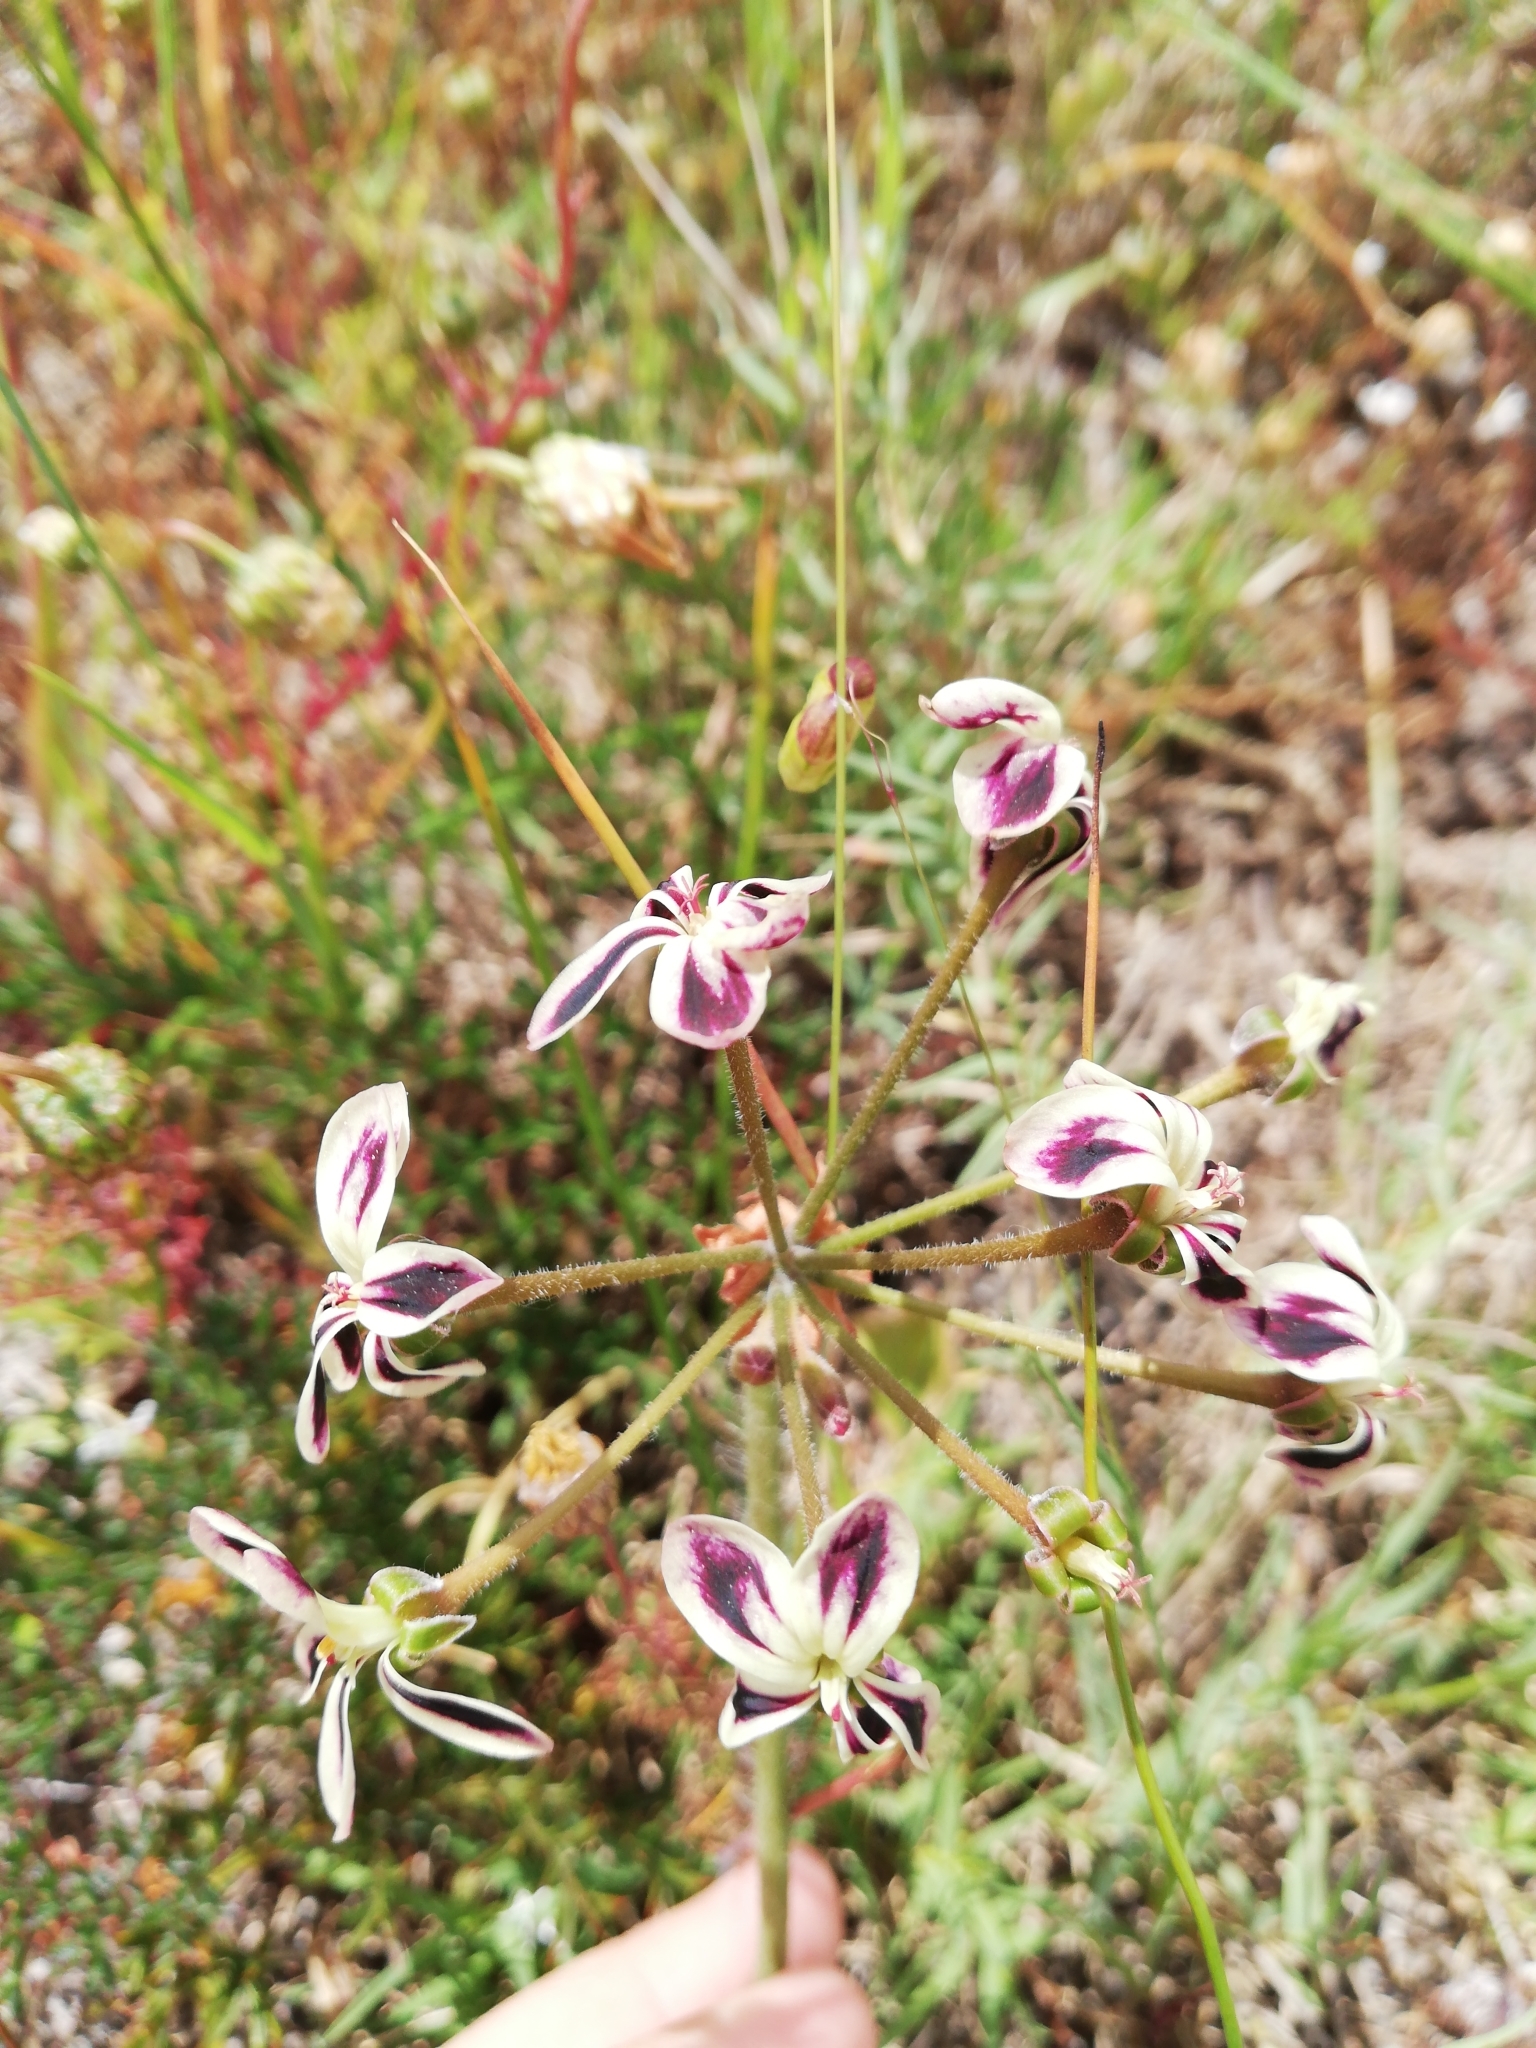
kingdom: Plantae
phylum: Tracheophyta
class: Magnoliopsida
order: Geraniales
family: Geraniaceae
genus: Pelargonium
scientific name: Pelargonium triste
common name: Night-scent pelargonium
